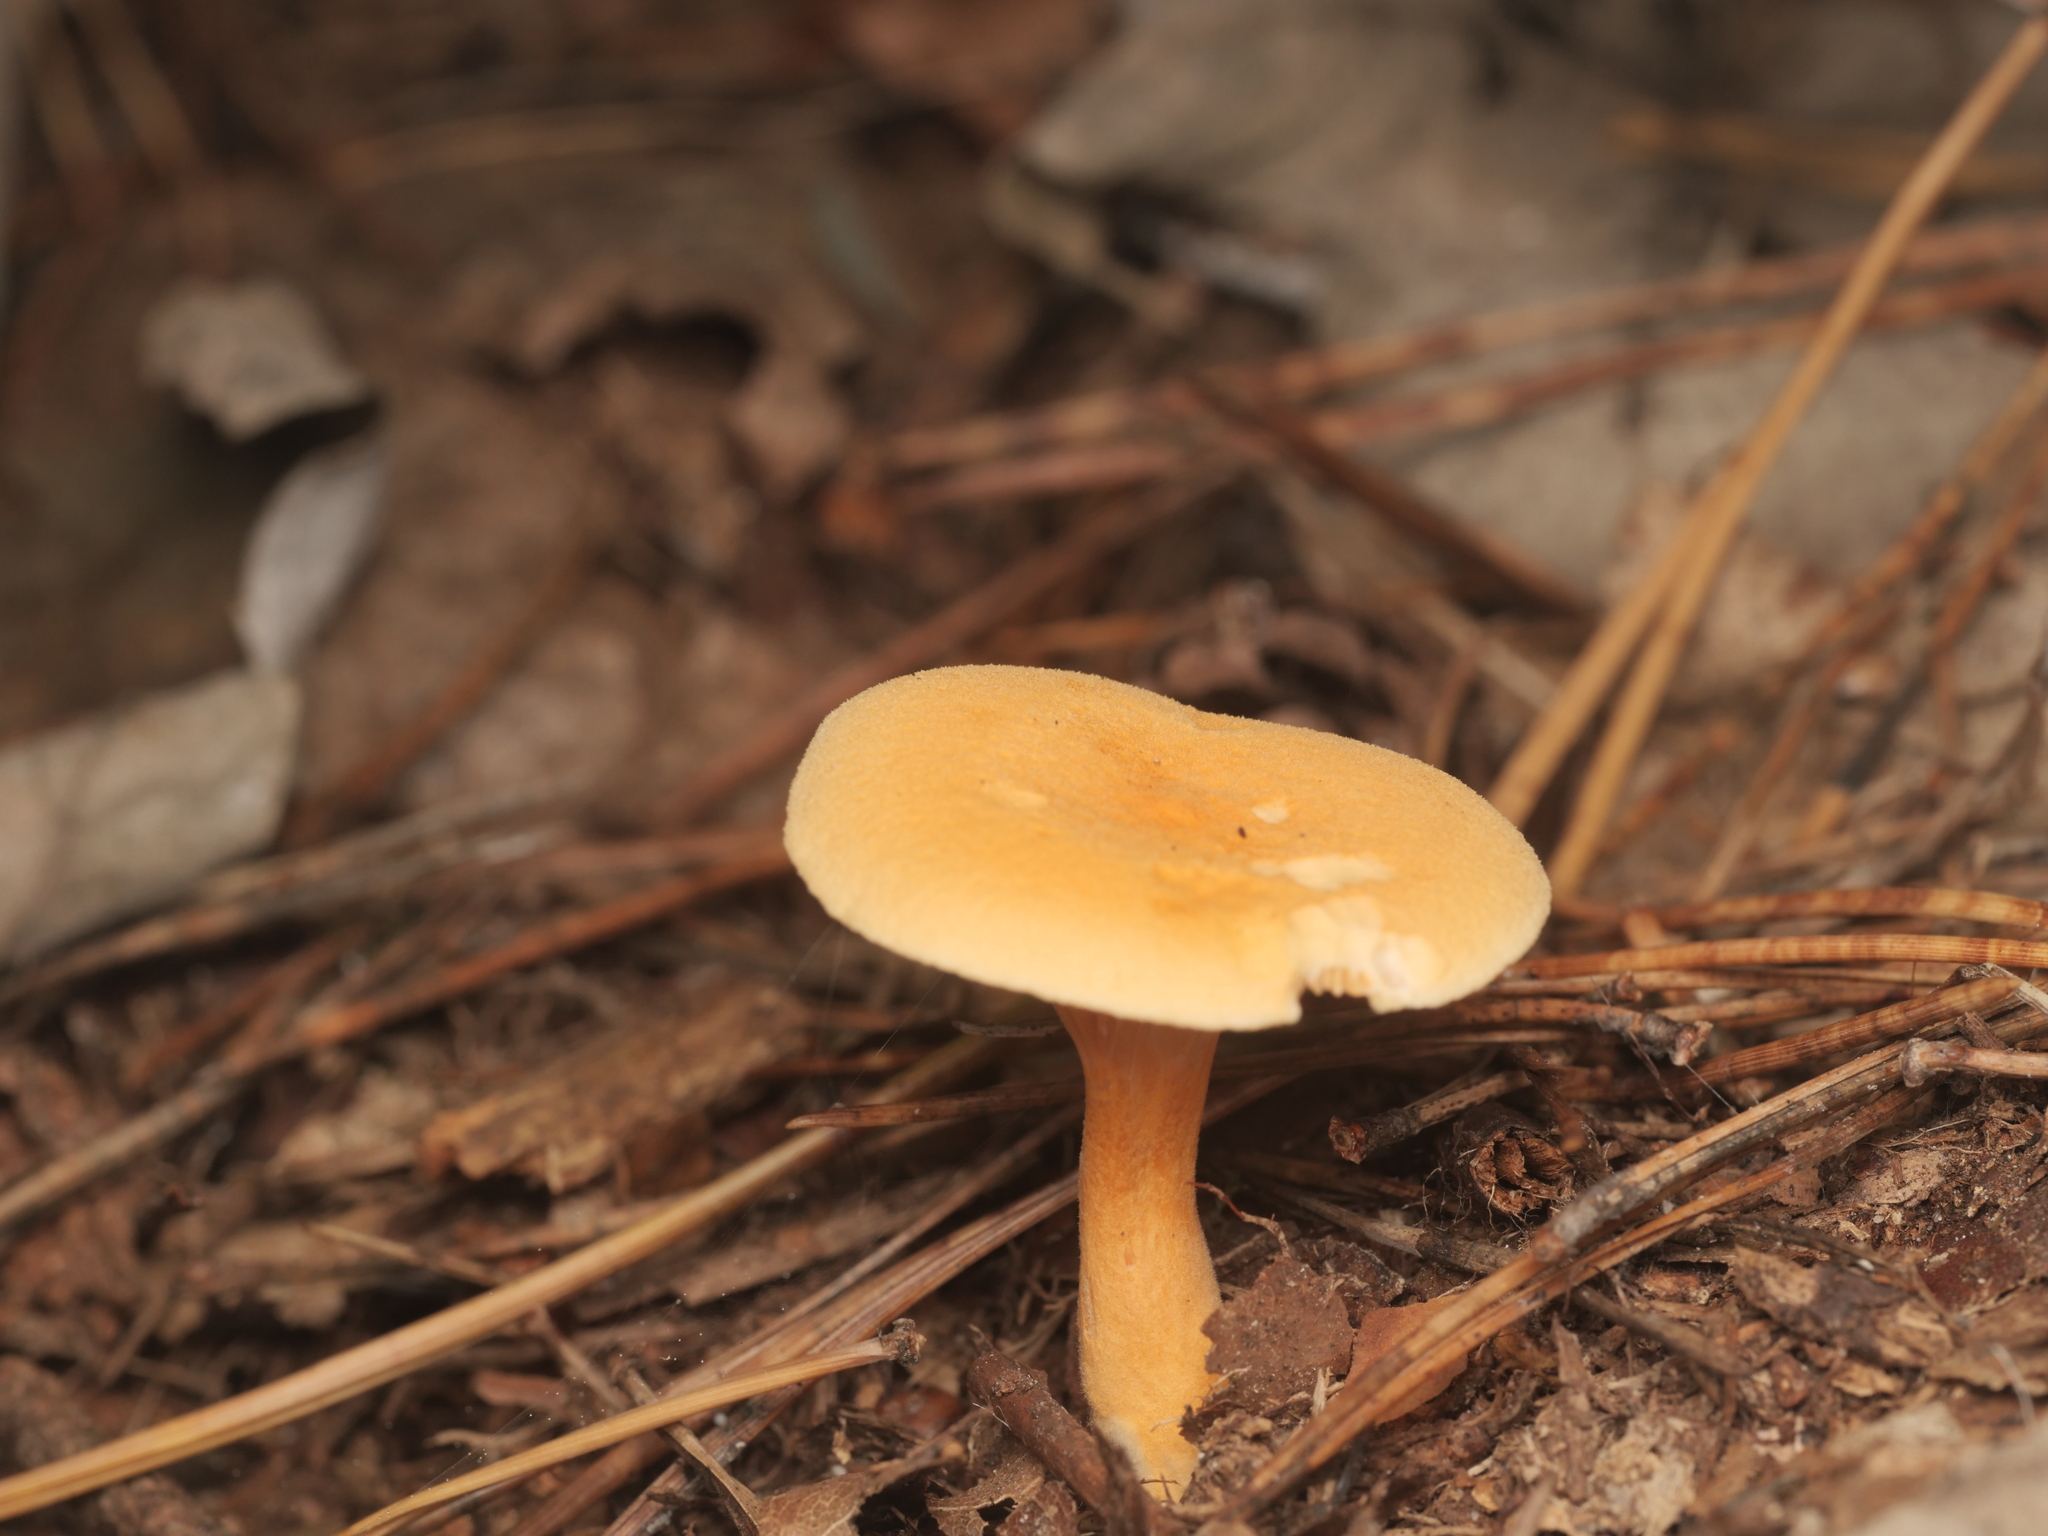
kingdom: Fungi
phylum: Basidiomycota
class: Agaricomycetes
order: Boletales
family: Hygrophoropsidaceae
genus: Hygrophoropsis
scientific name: Hygrophoropsis aurantiaca
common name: False chanterelle
